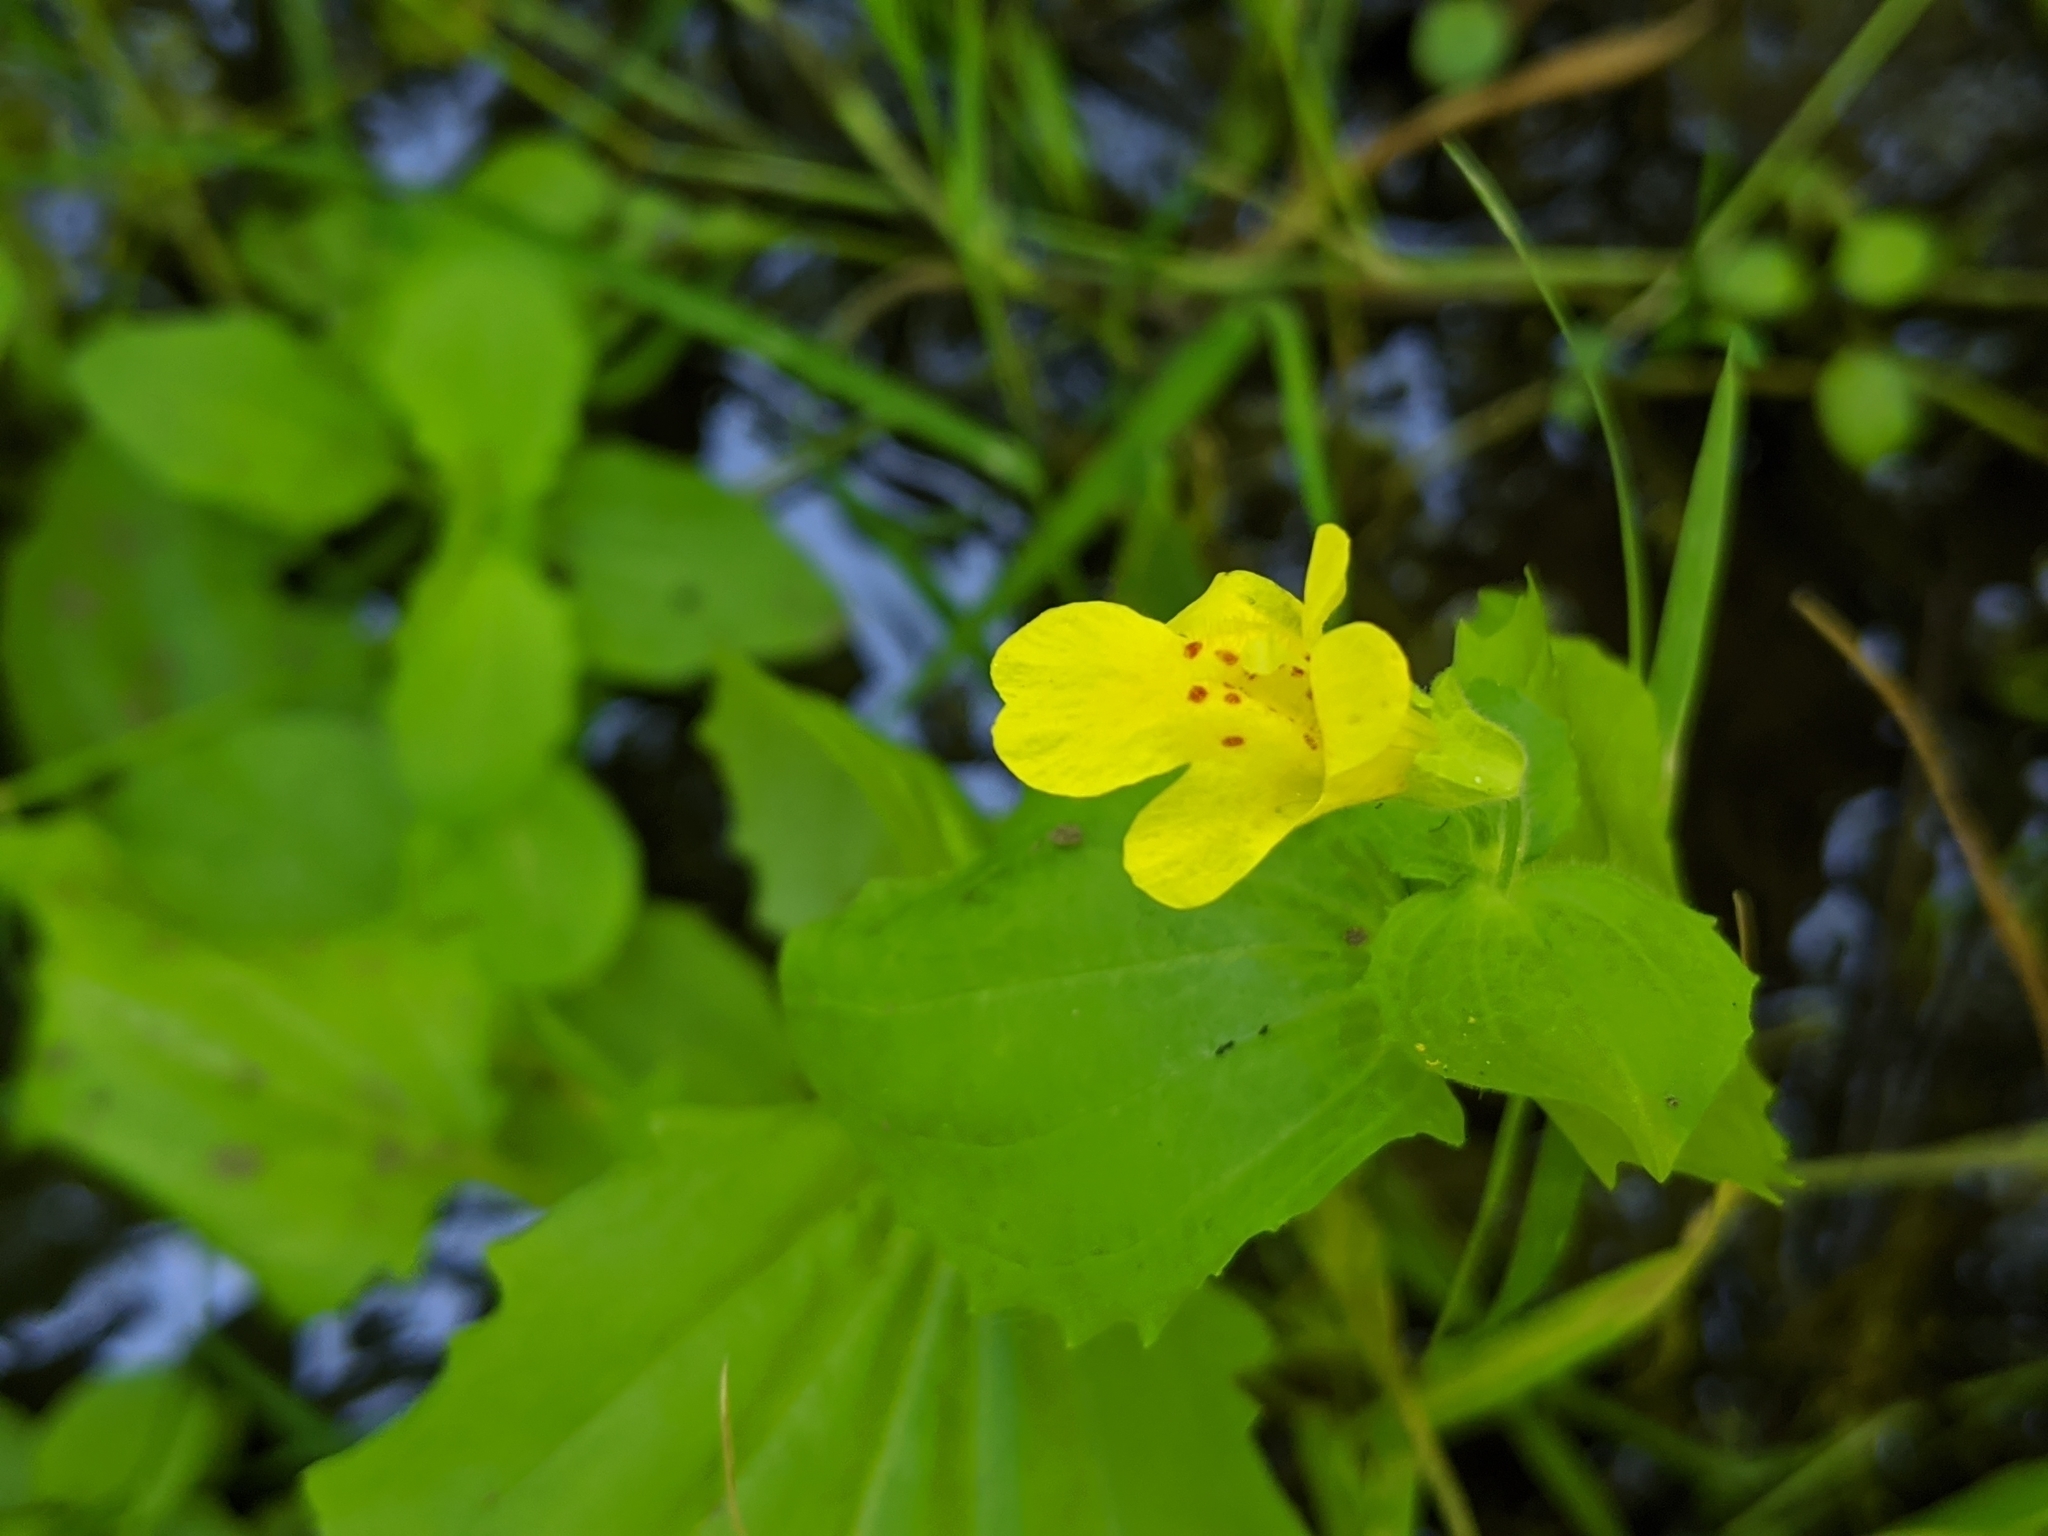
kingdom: Plantae
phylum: Tracheophyta
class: Magnoliopsida
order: Lamiales
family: Phrymaceae
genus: Erythranthe
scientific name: Erythranthe guttata
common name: Monkeyflower
